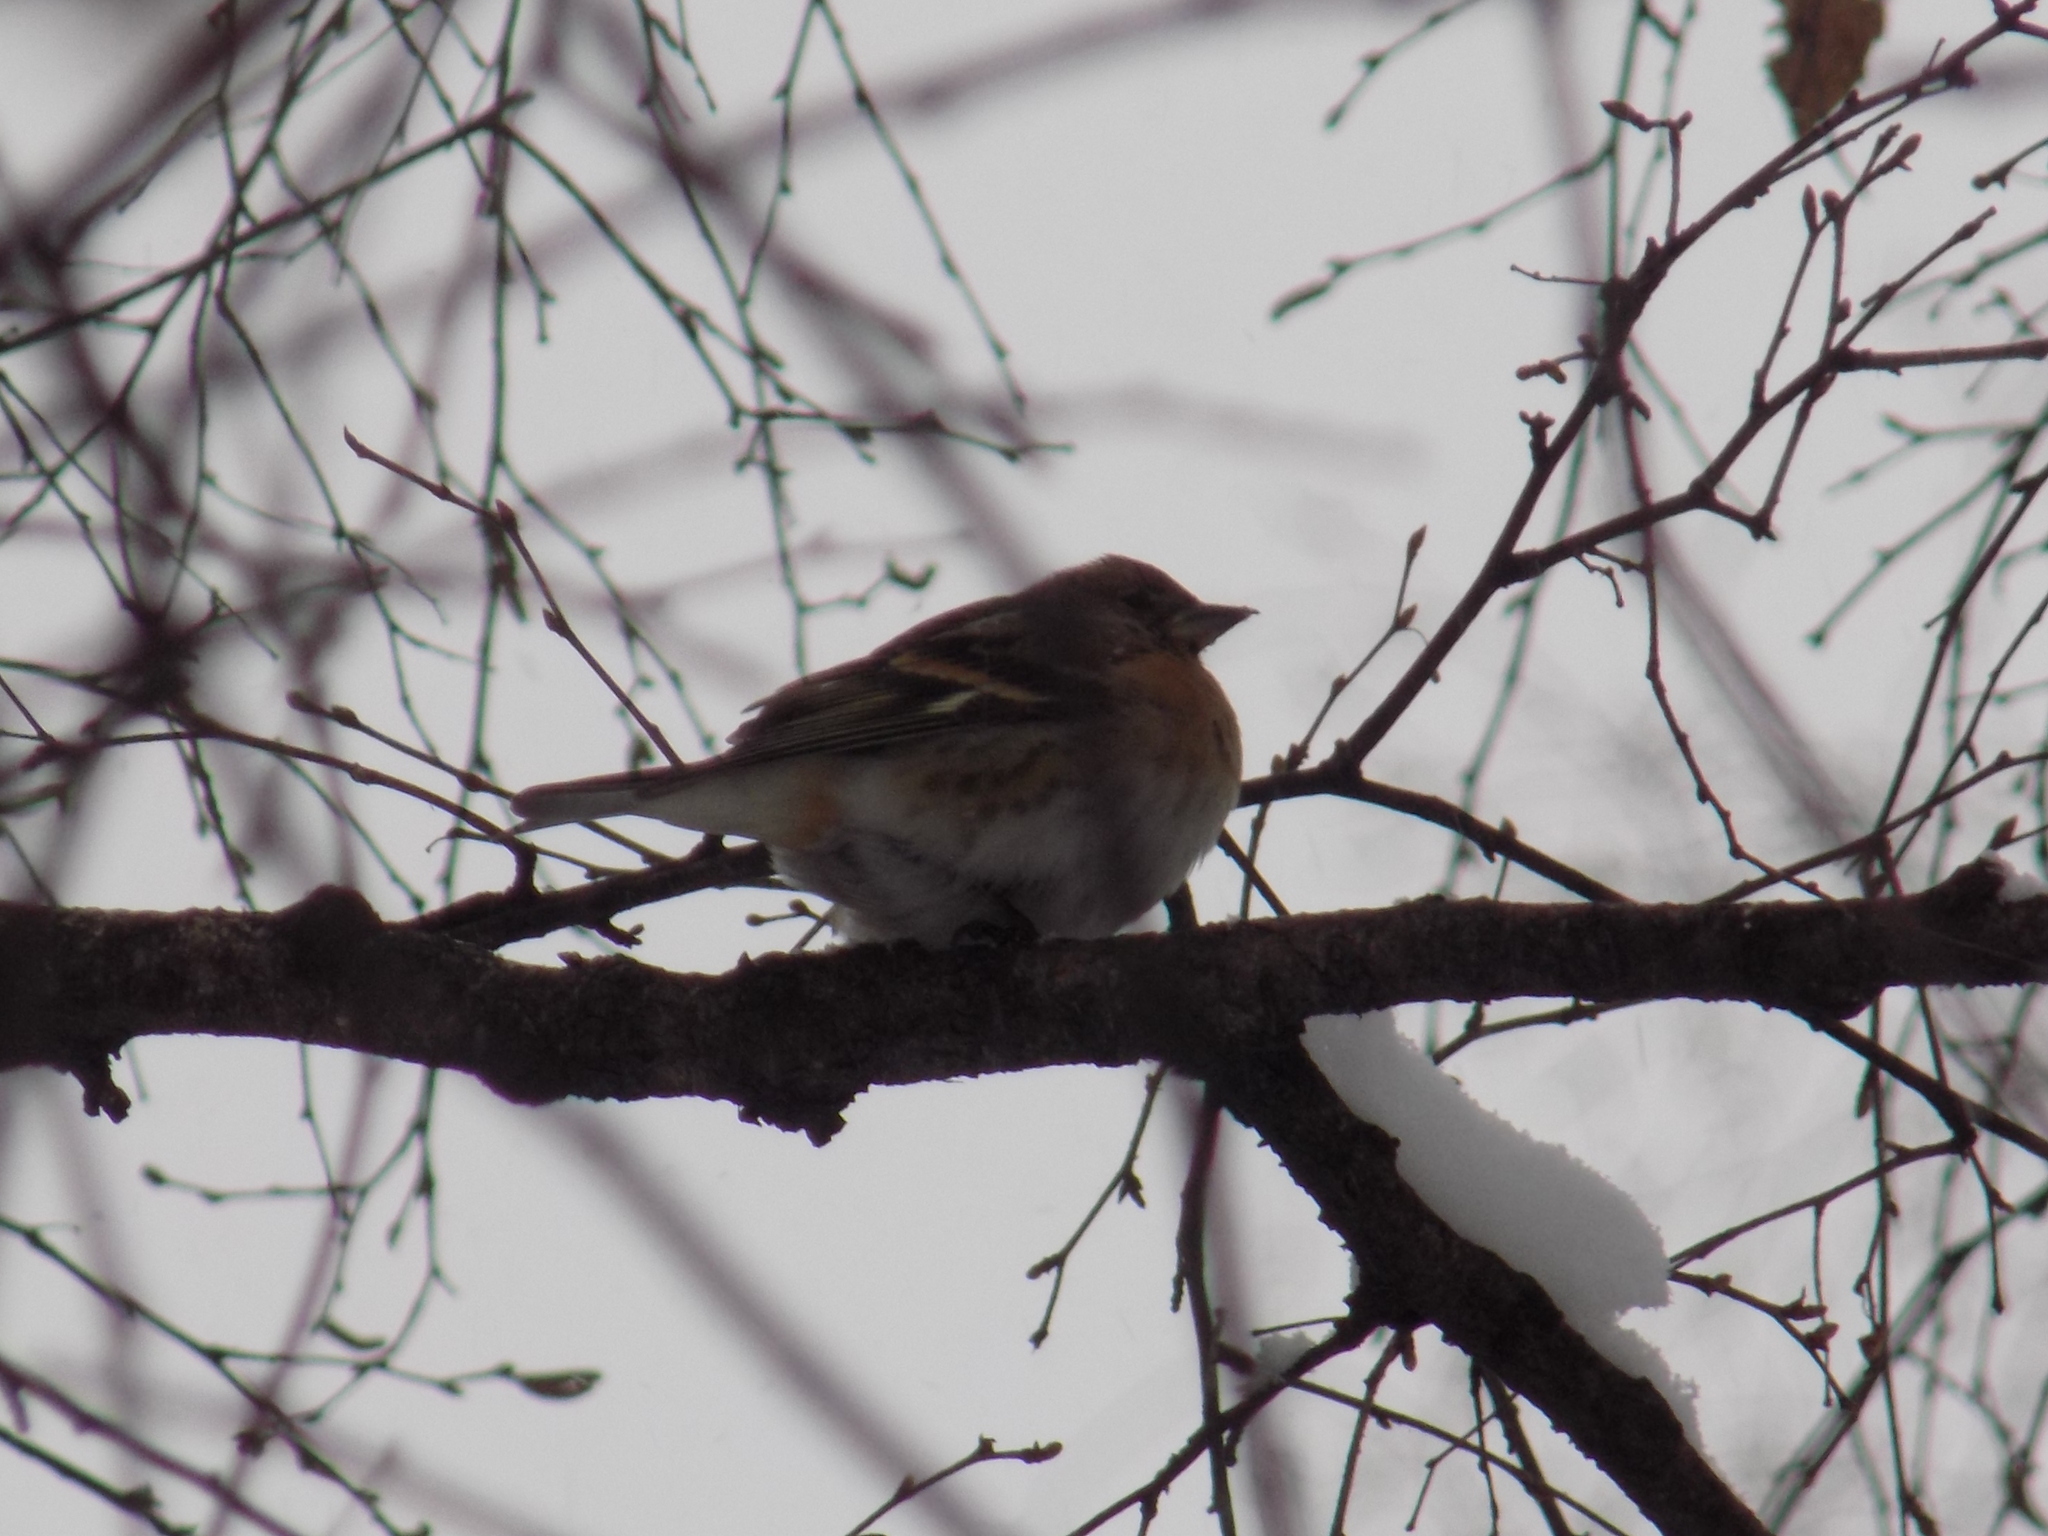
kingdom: Animalia
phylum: Chordata
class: Aves
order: Passeriformes
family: Fringillidae
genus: Fringilla
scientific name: Fringilla montifringilla
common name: Brambling
